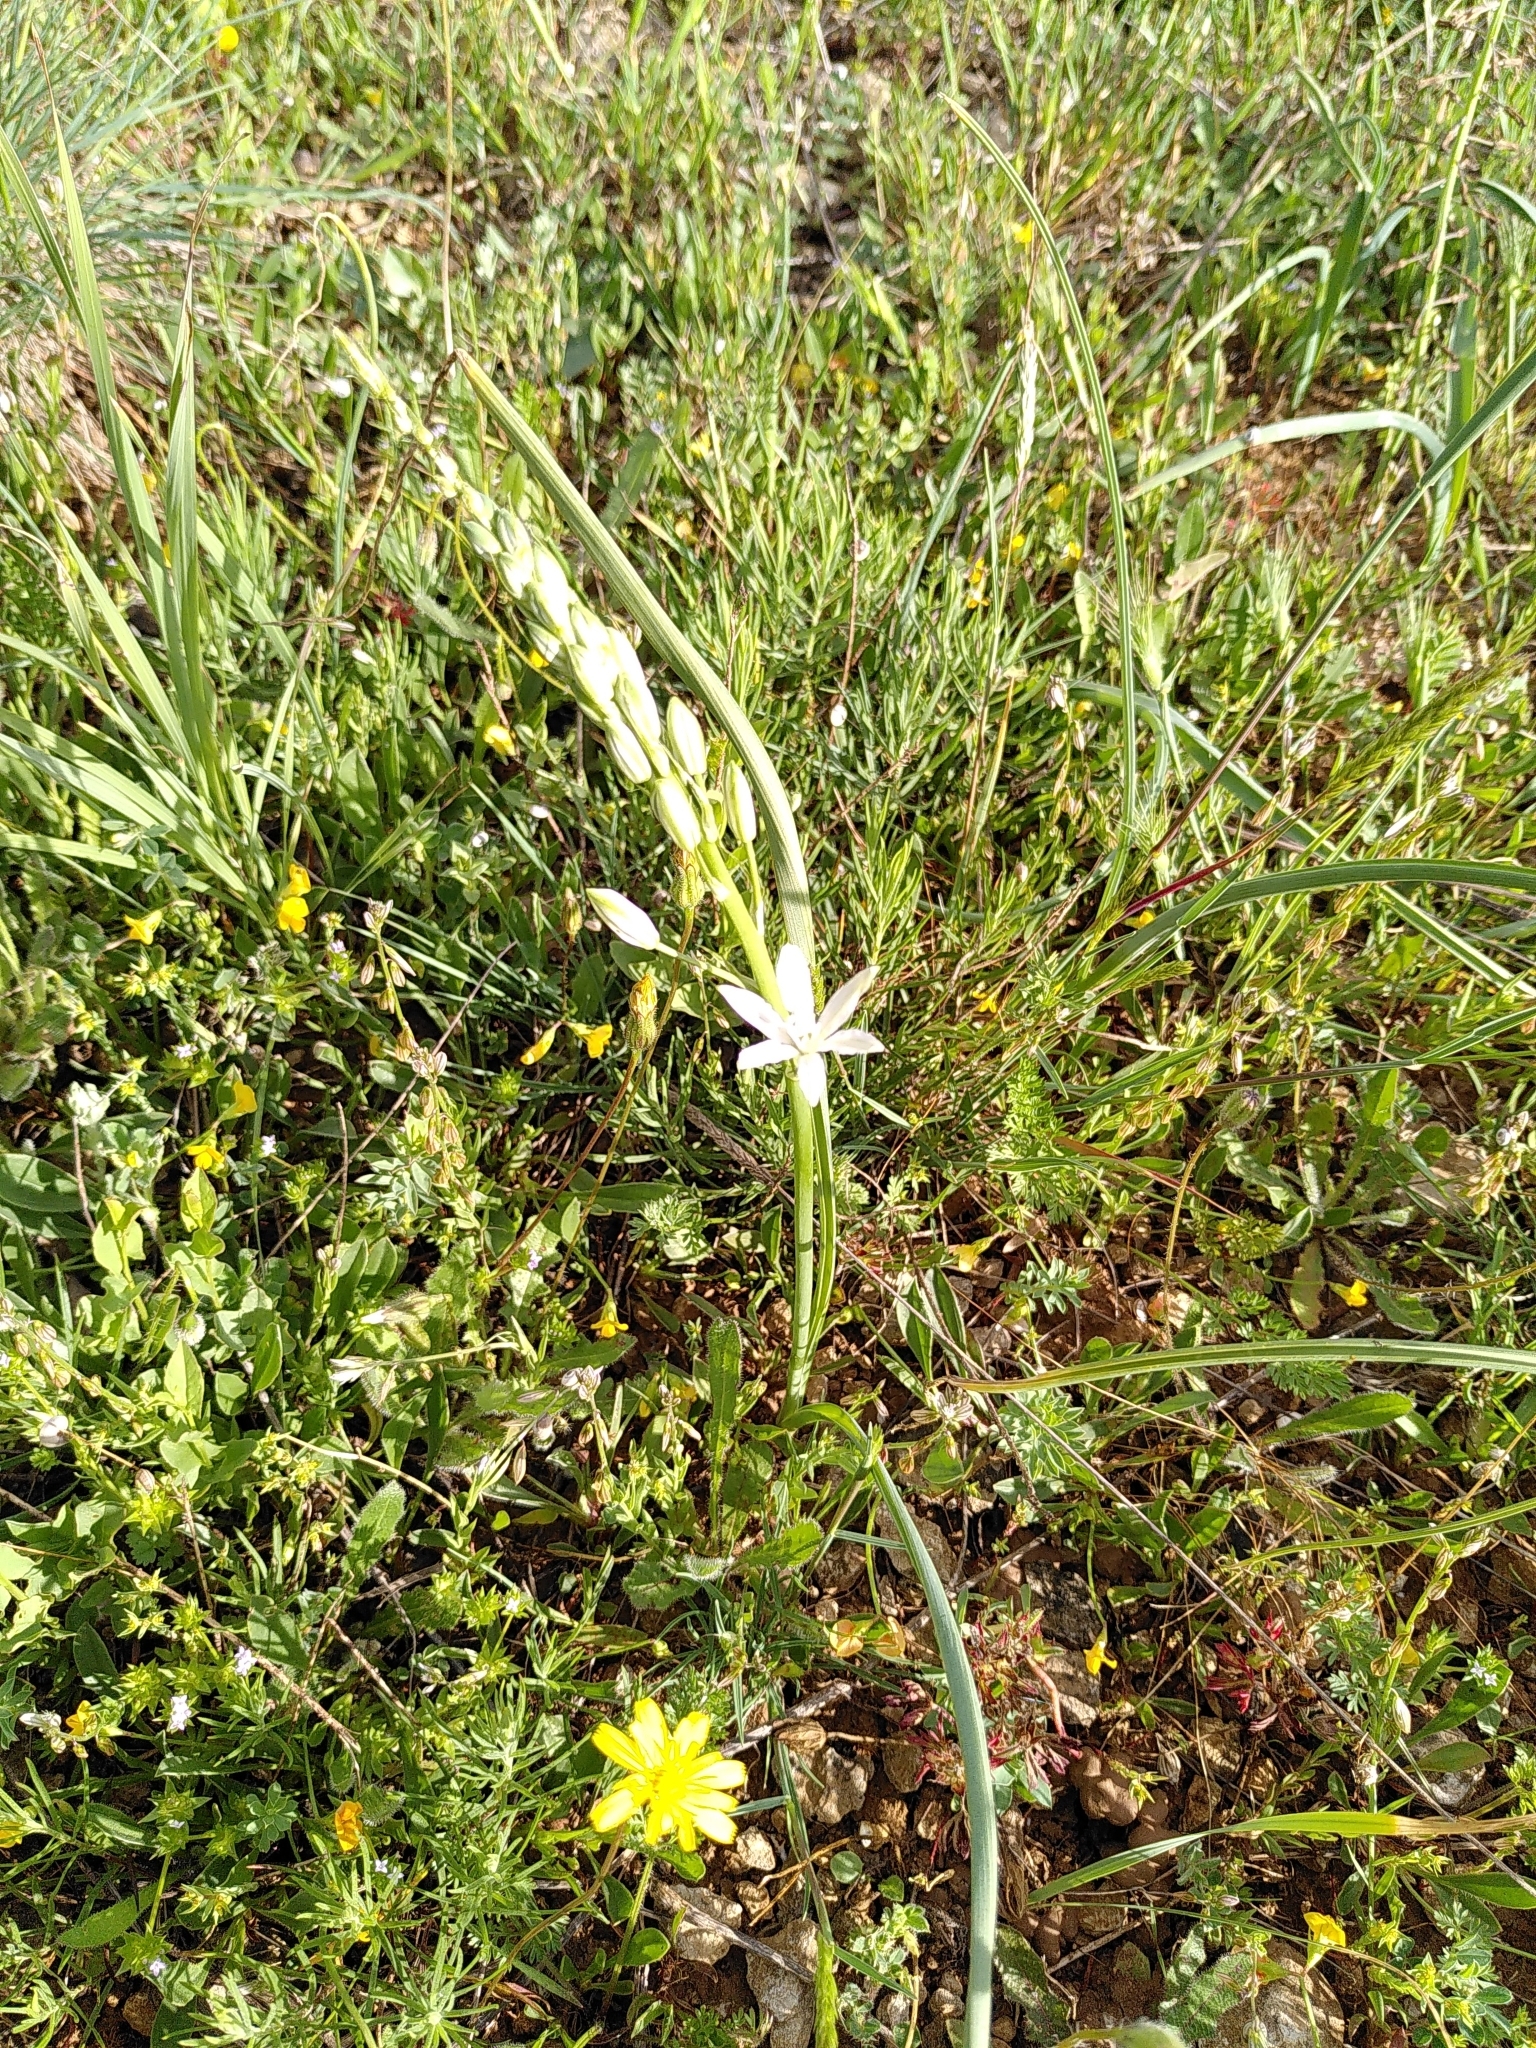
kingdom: Plantae
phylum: Tracheophyta
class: Liliopsida
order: Asparagales
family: Asparagaceae
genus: Ornithogalum
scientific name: Ornithogalum narbonense
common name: Bath-asparagus
